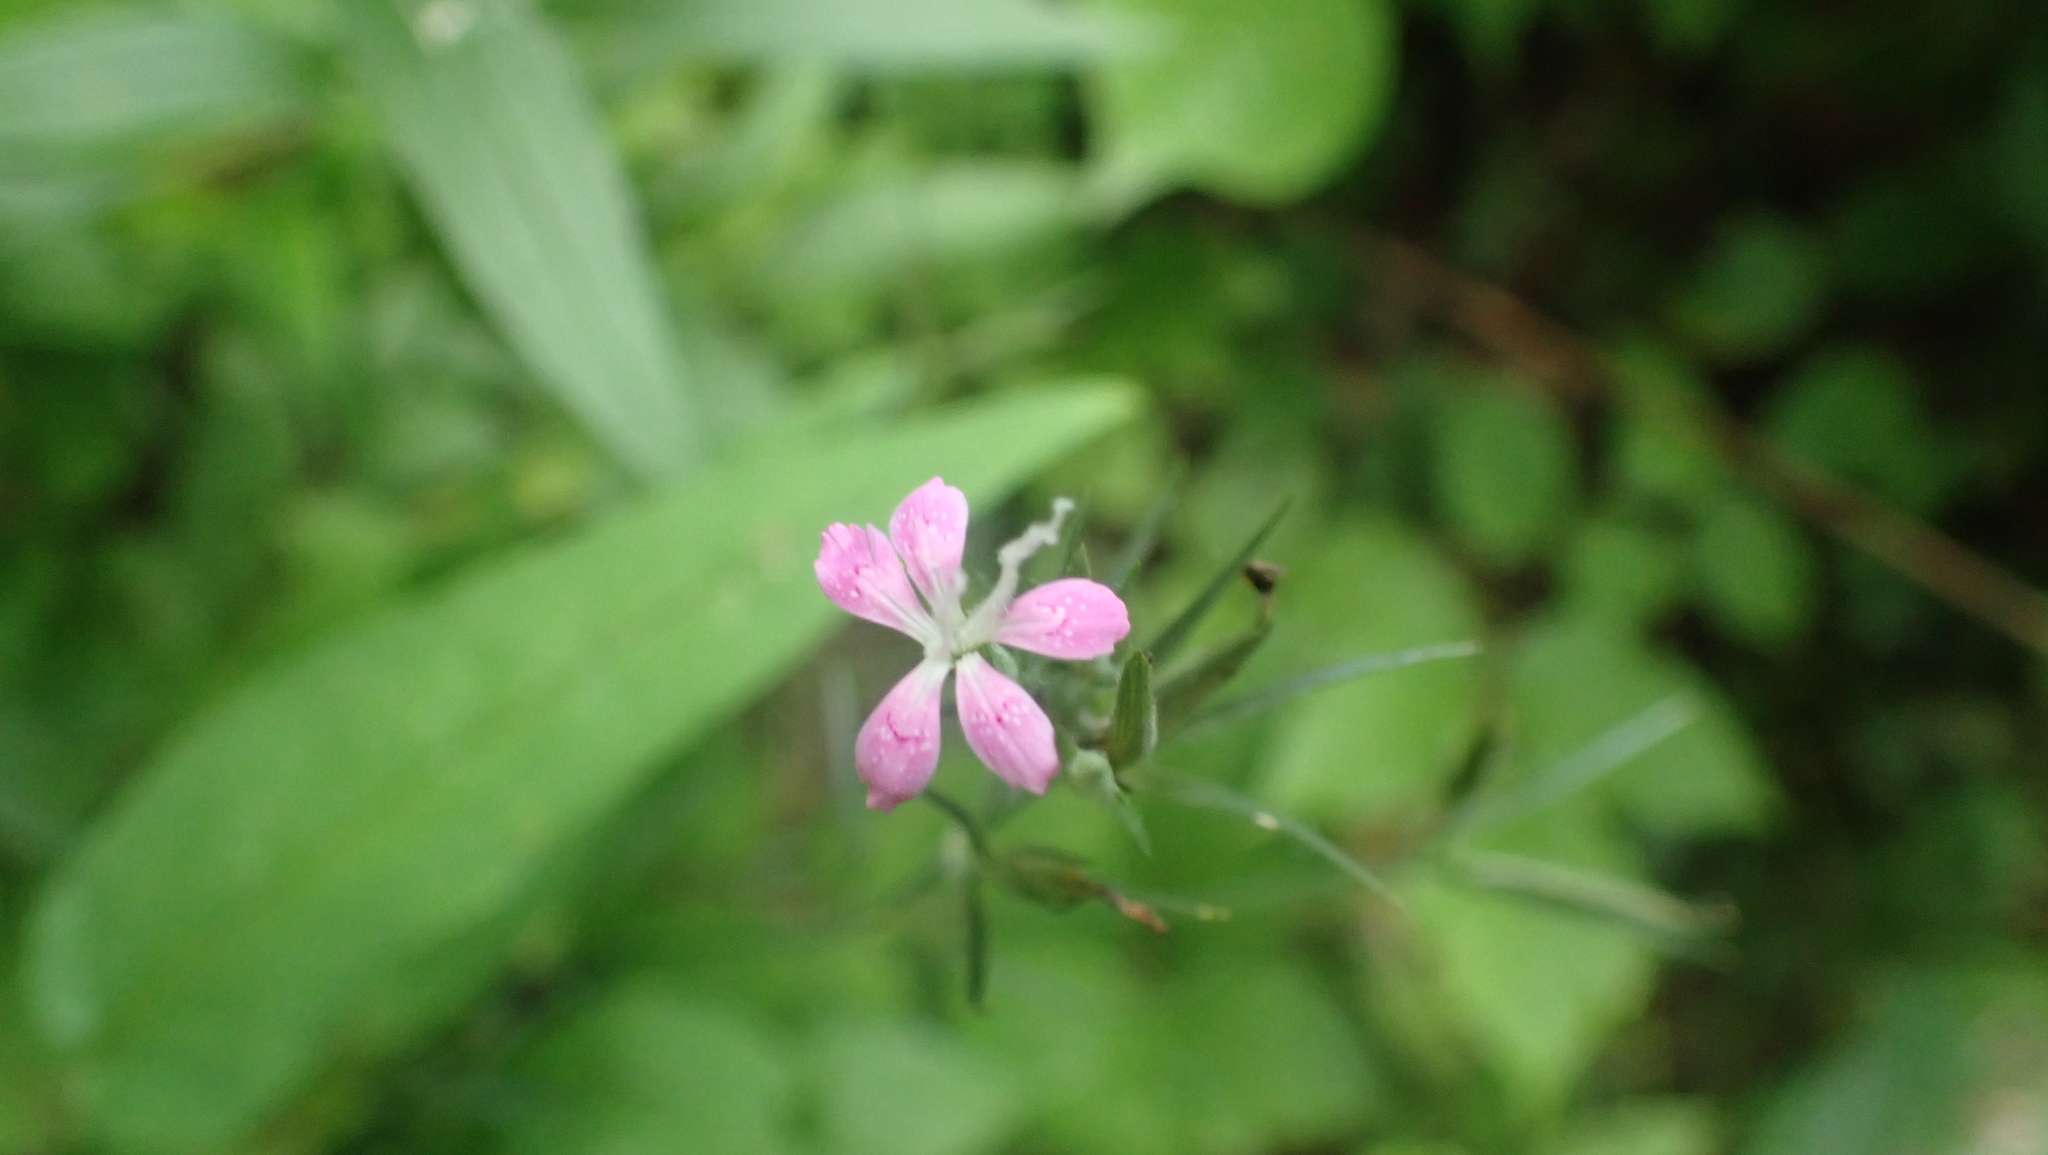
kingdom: Plantae
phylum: Tracheophyta
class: Magnoliopsida
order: Caryophyllales
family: Caryophyllaceae
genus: Dianthus
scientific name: Dianthus armeria
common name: Deptford pink
